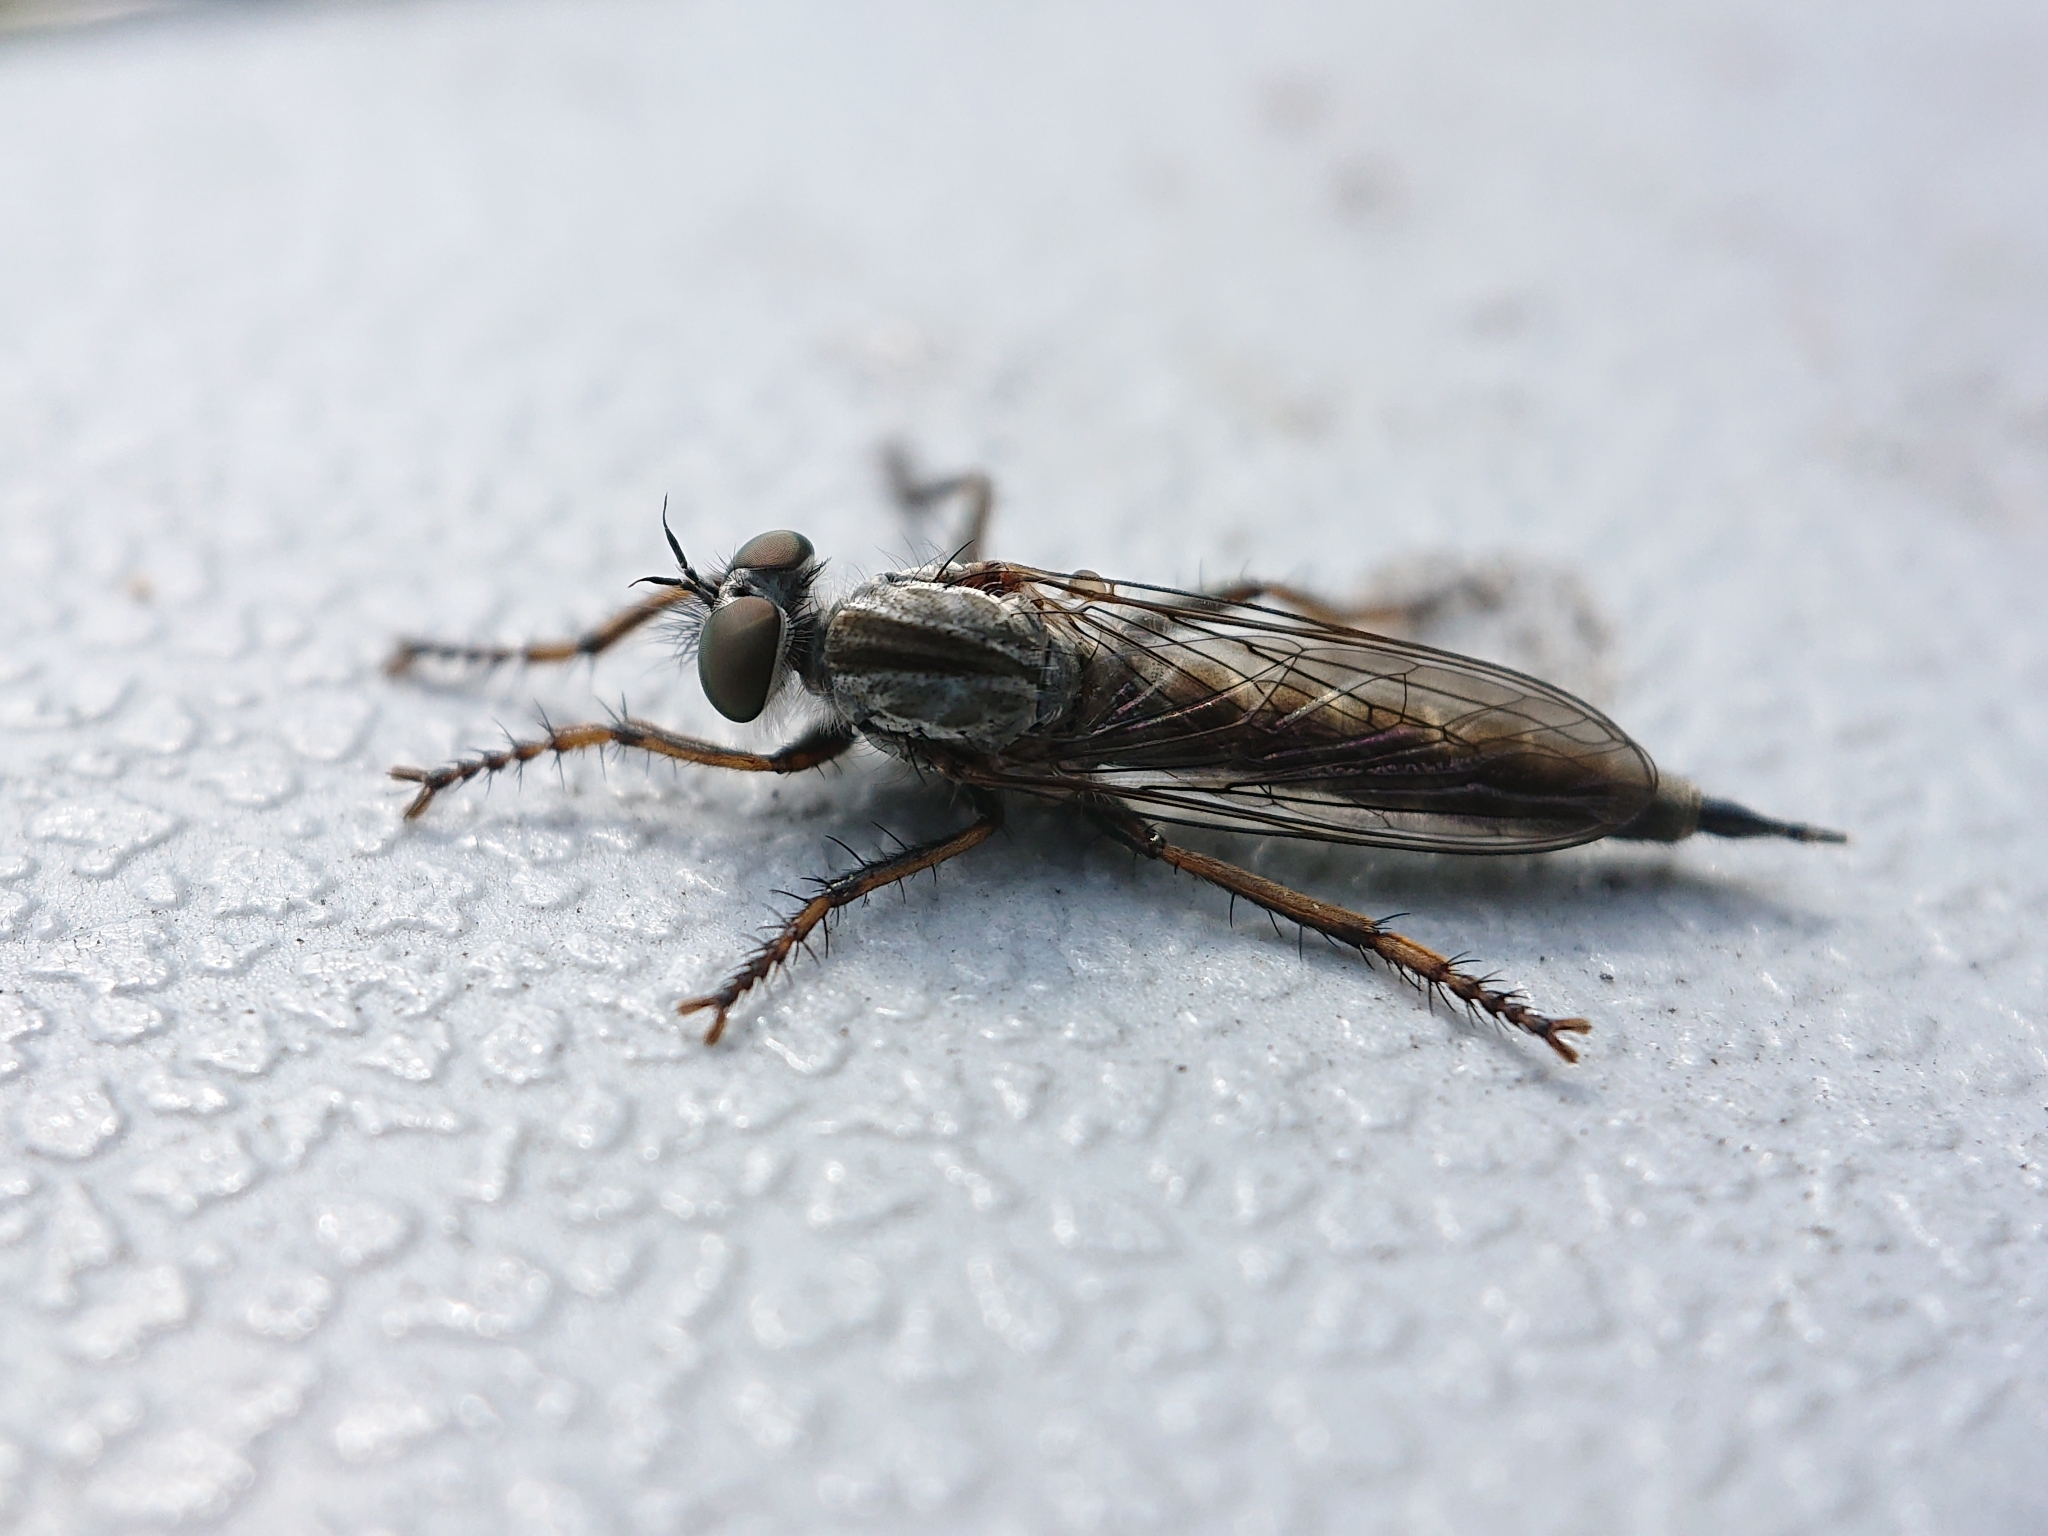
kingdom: Animalia
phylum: Arthropoda
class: Insecta
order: Diptera
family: Asilidae
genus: Machimus
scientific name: Machimus atricapillus
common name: Kite-tailed robberfly
